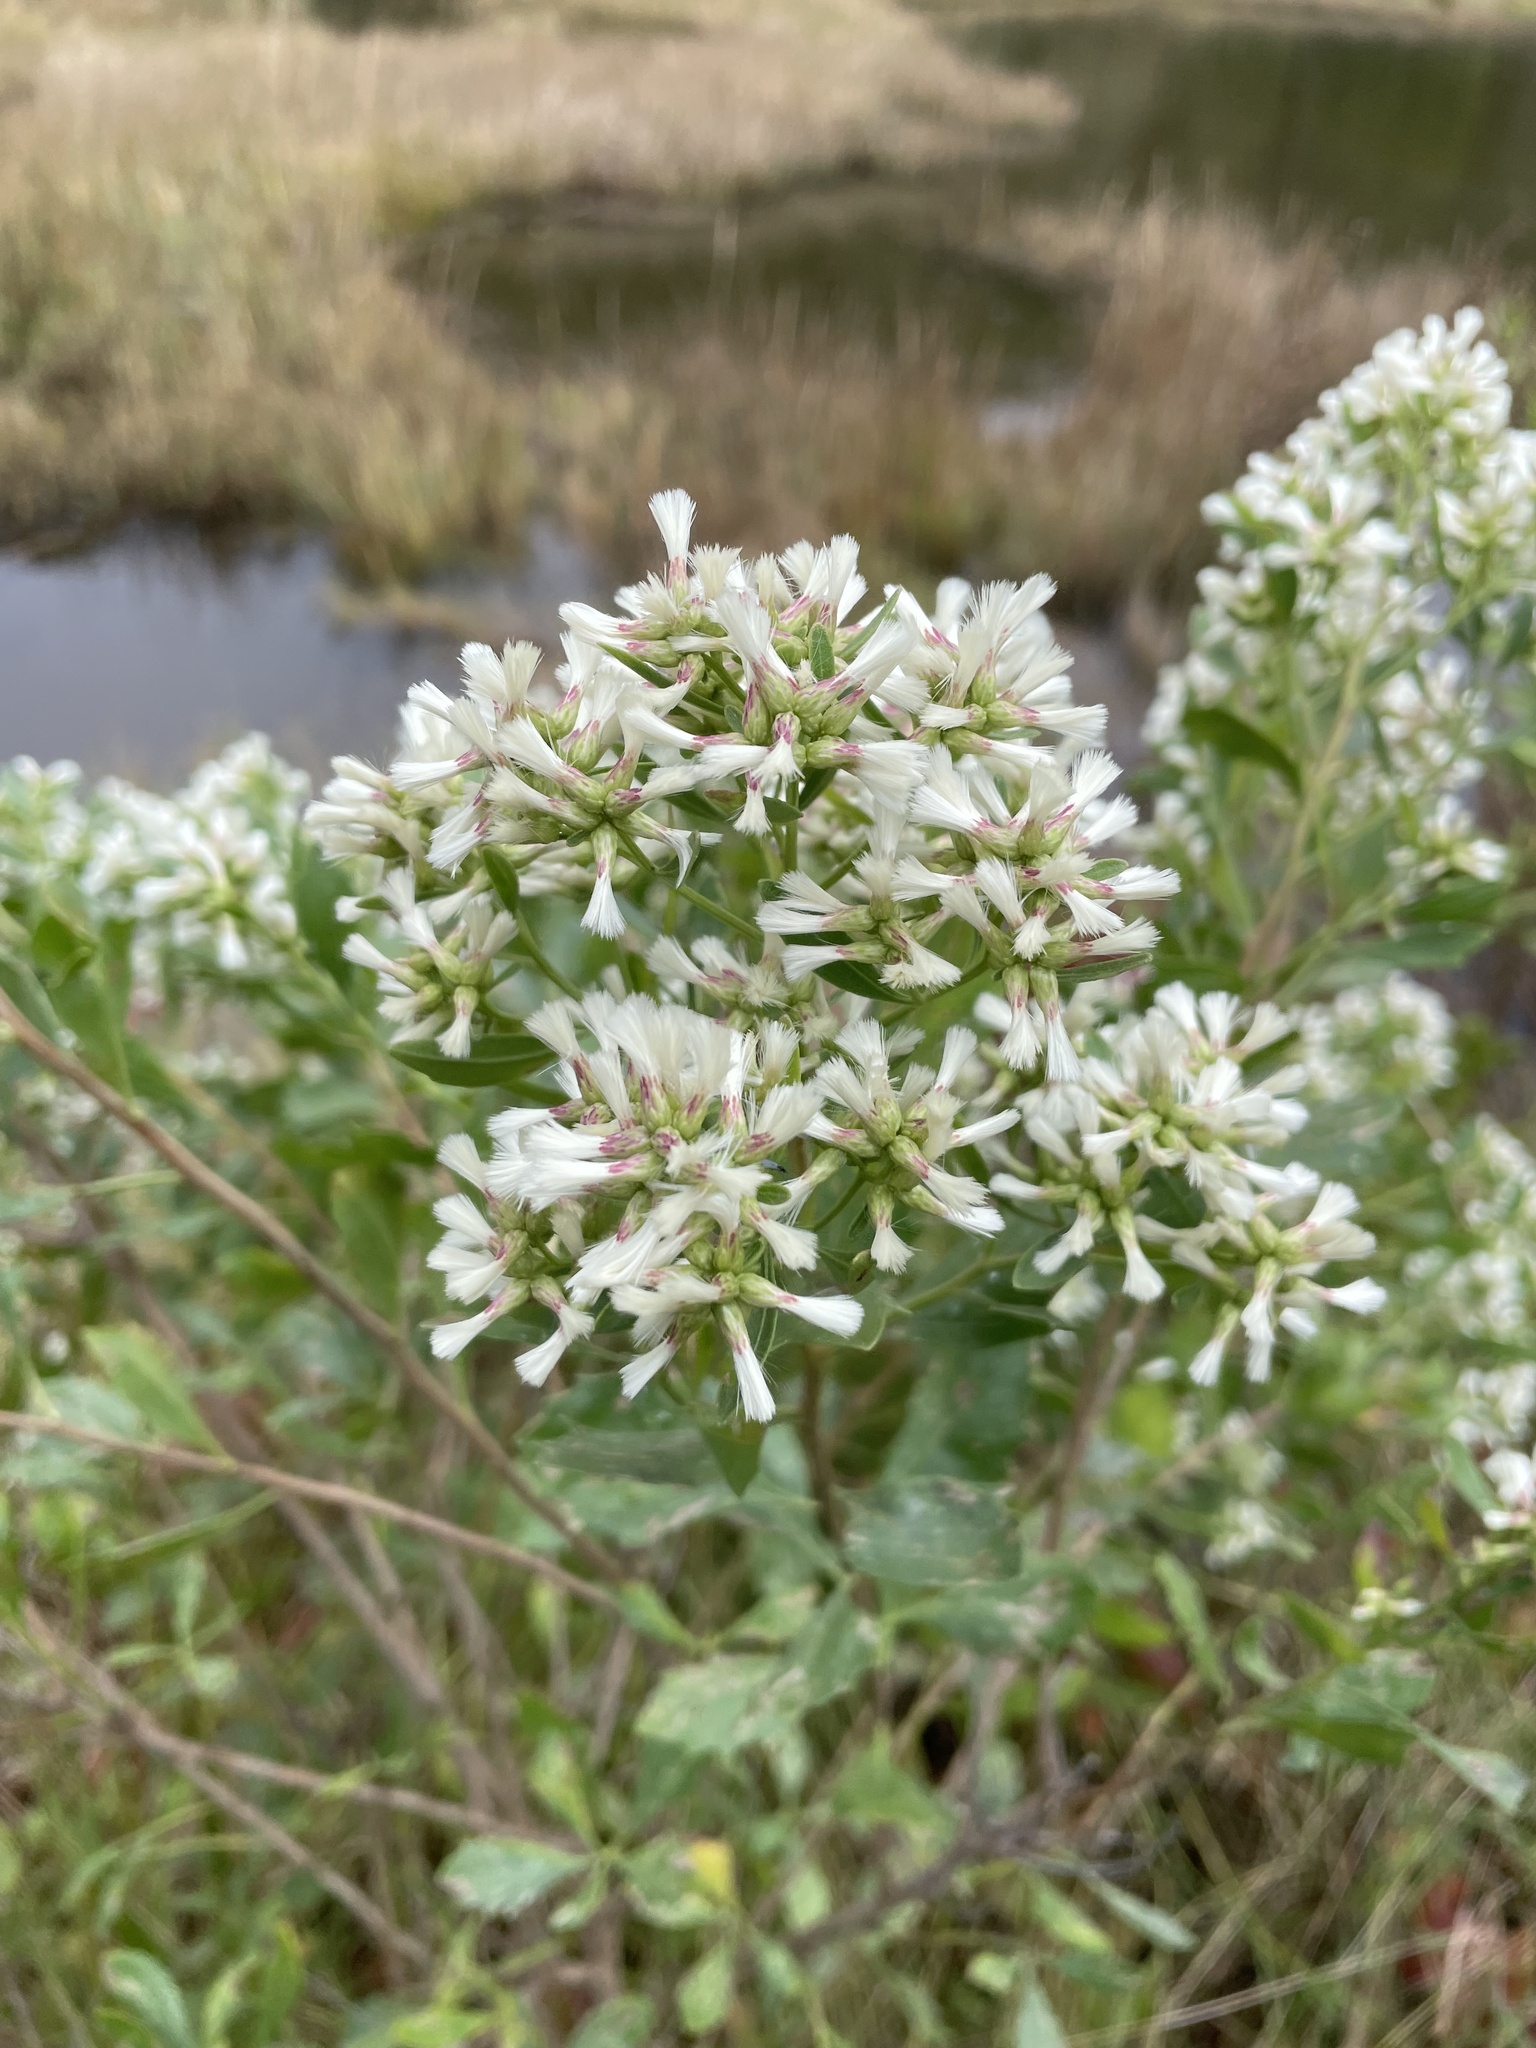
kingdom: Plantae
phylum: Tracheophyta
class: Magnoliopsida
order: Asterales
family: Asteraceae
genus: Baccharis
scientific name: Baccharis halimifolia
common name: Eastern baccharis
